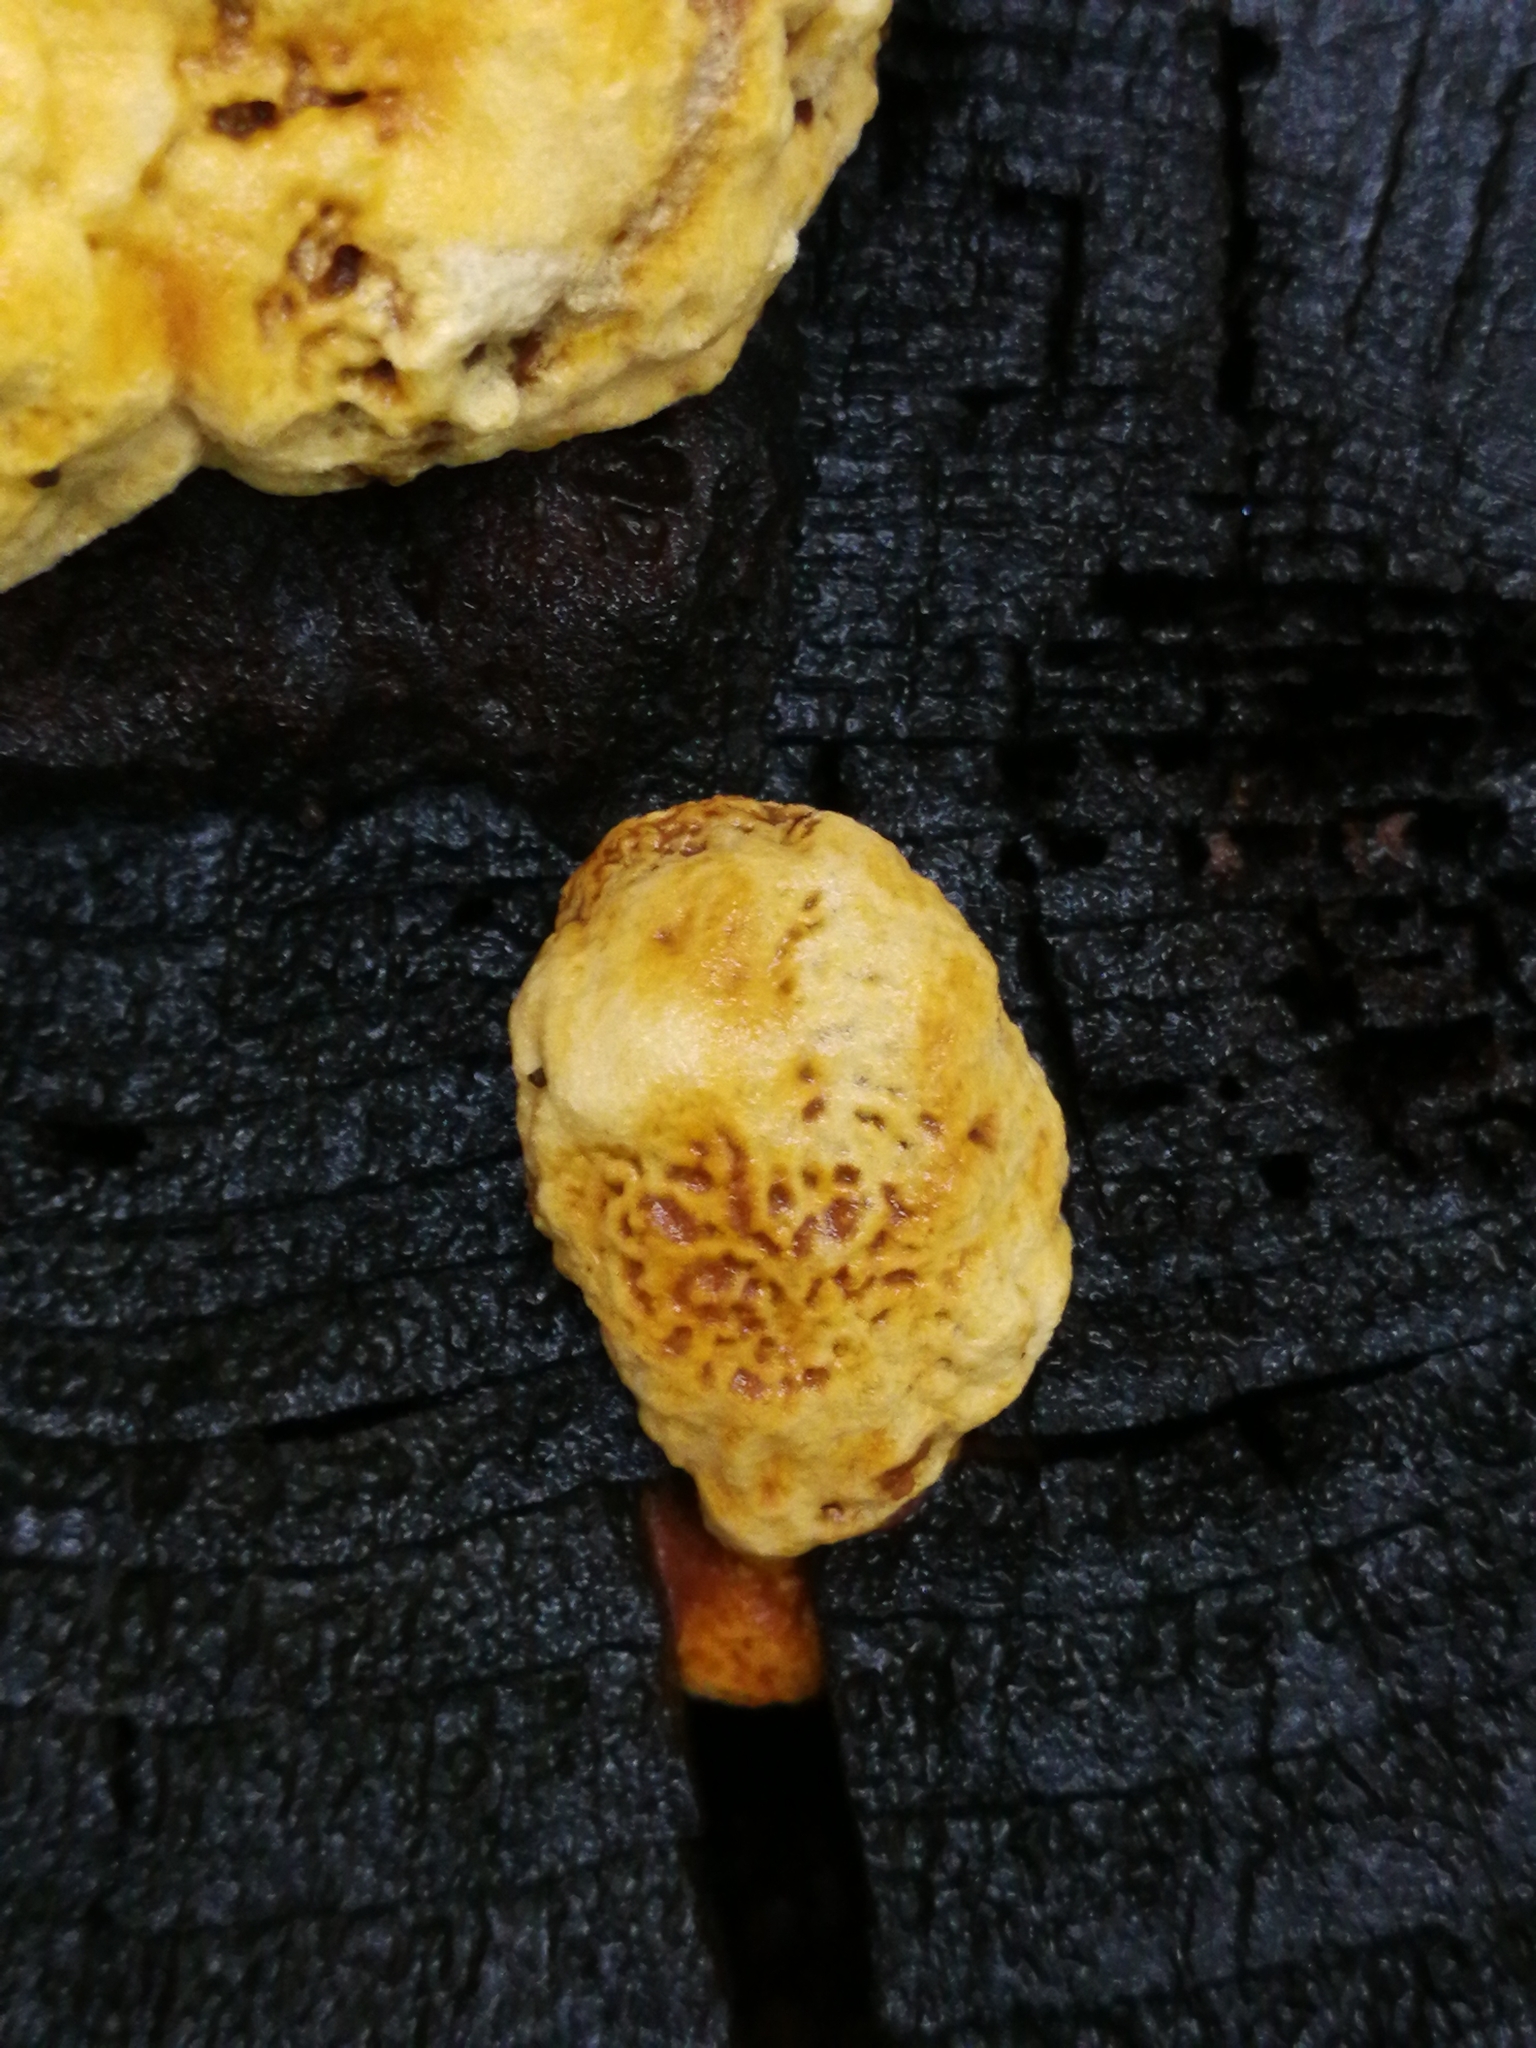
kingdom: Fungi
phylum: Basidiomycota
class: Agaricomycetes
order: Gloeophyllales
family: Gloeophyllaceae
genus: Gloeophyllum
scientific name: Gloeophyllum odoratum
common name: Anise mazegill
